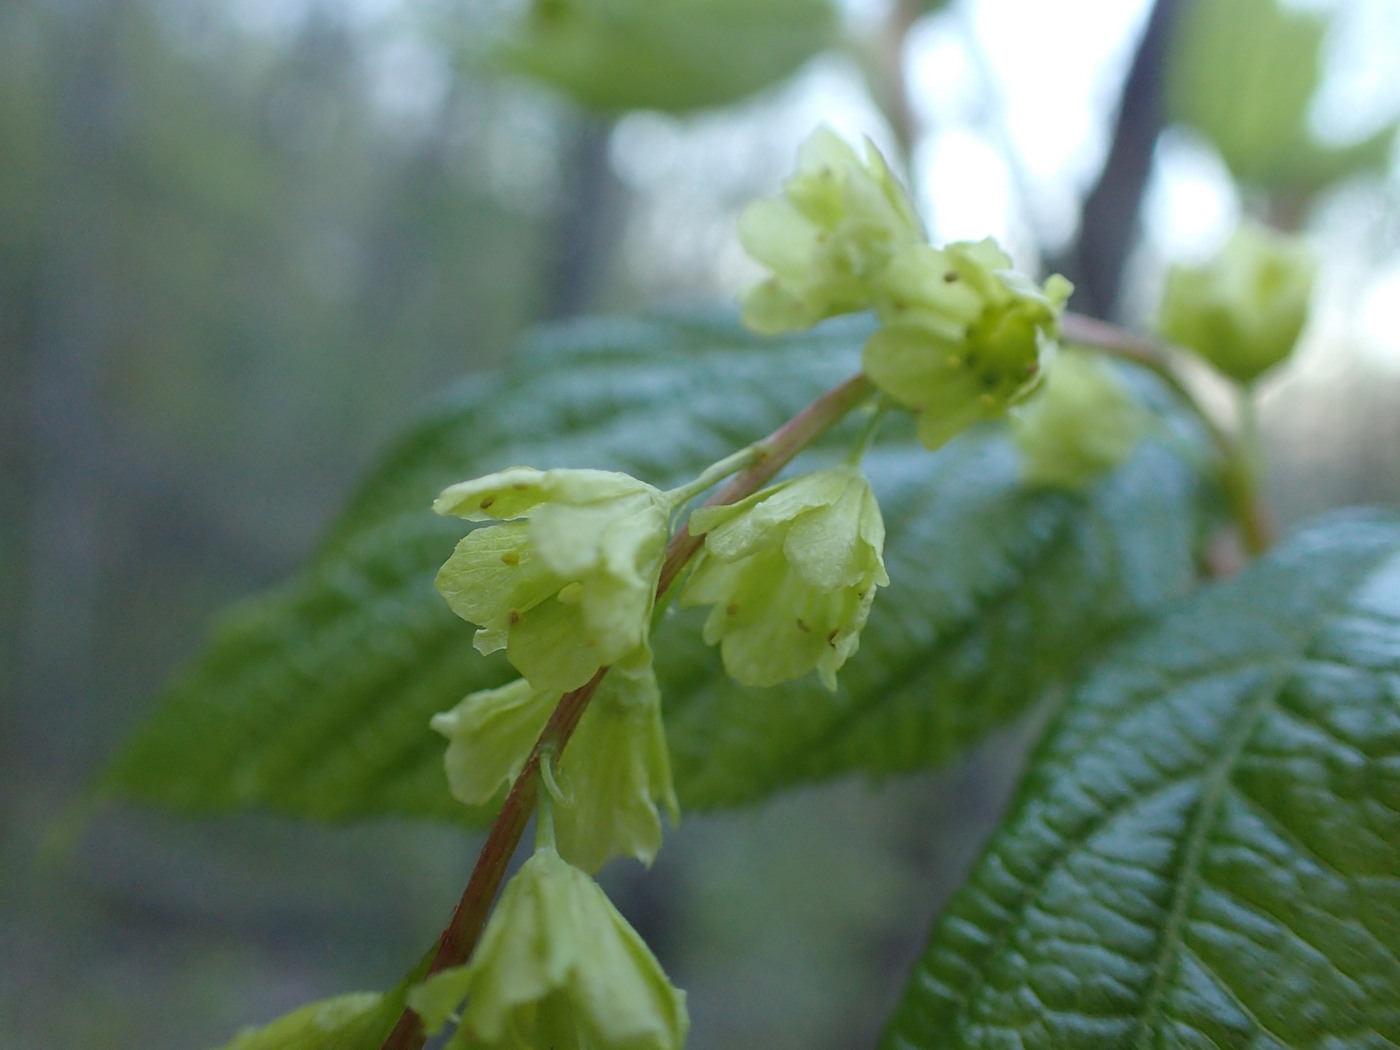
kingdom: Plantae
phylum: Tracheophyta
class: Magnoliopsida
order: Sapindales
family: Sapindaceae
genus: Acer
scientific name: Acer pensylvanicum
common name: Moosewood
